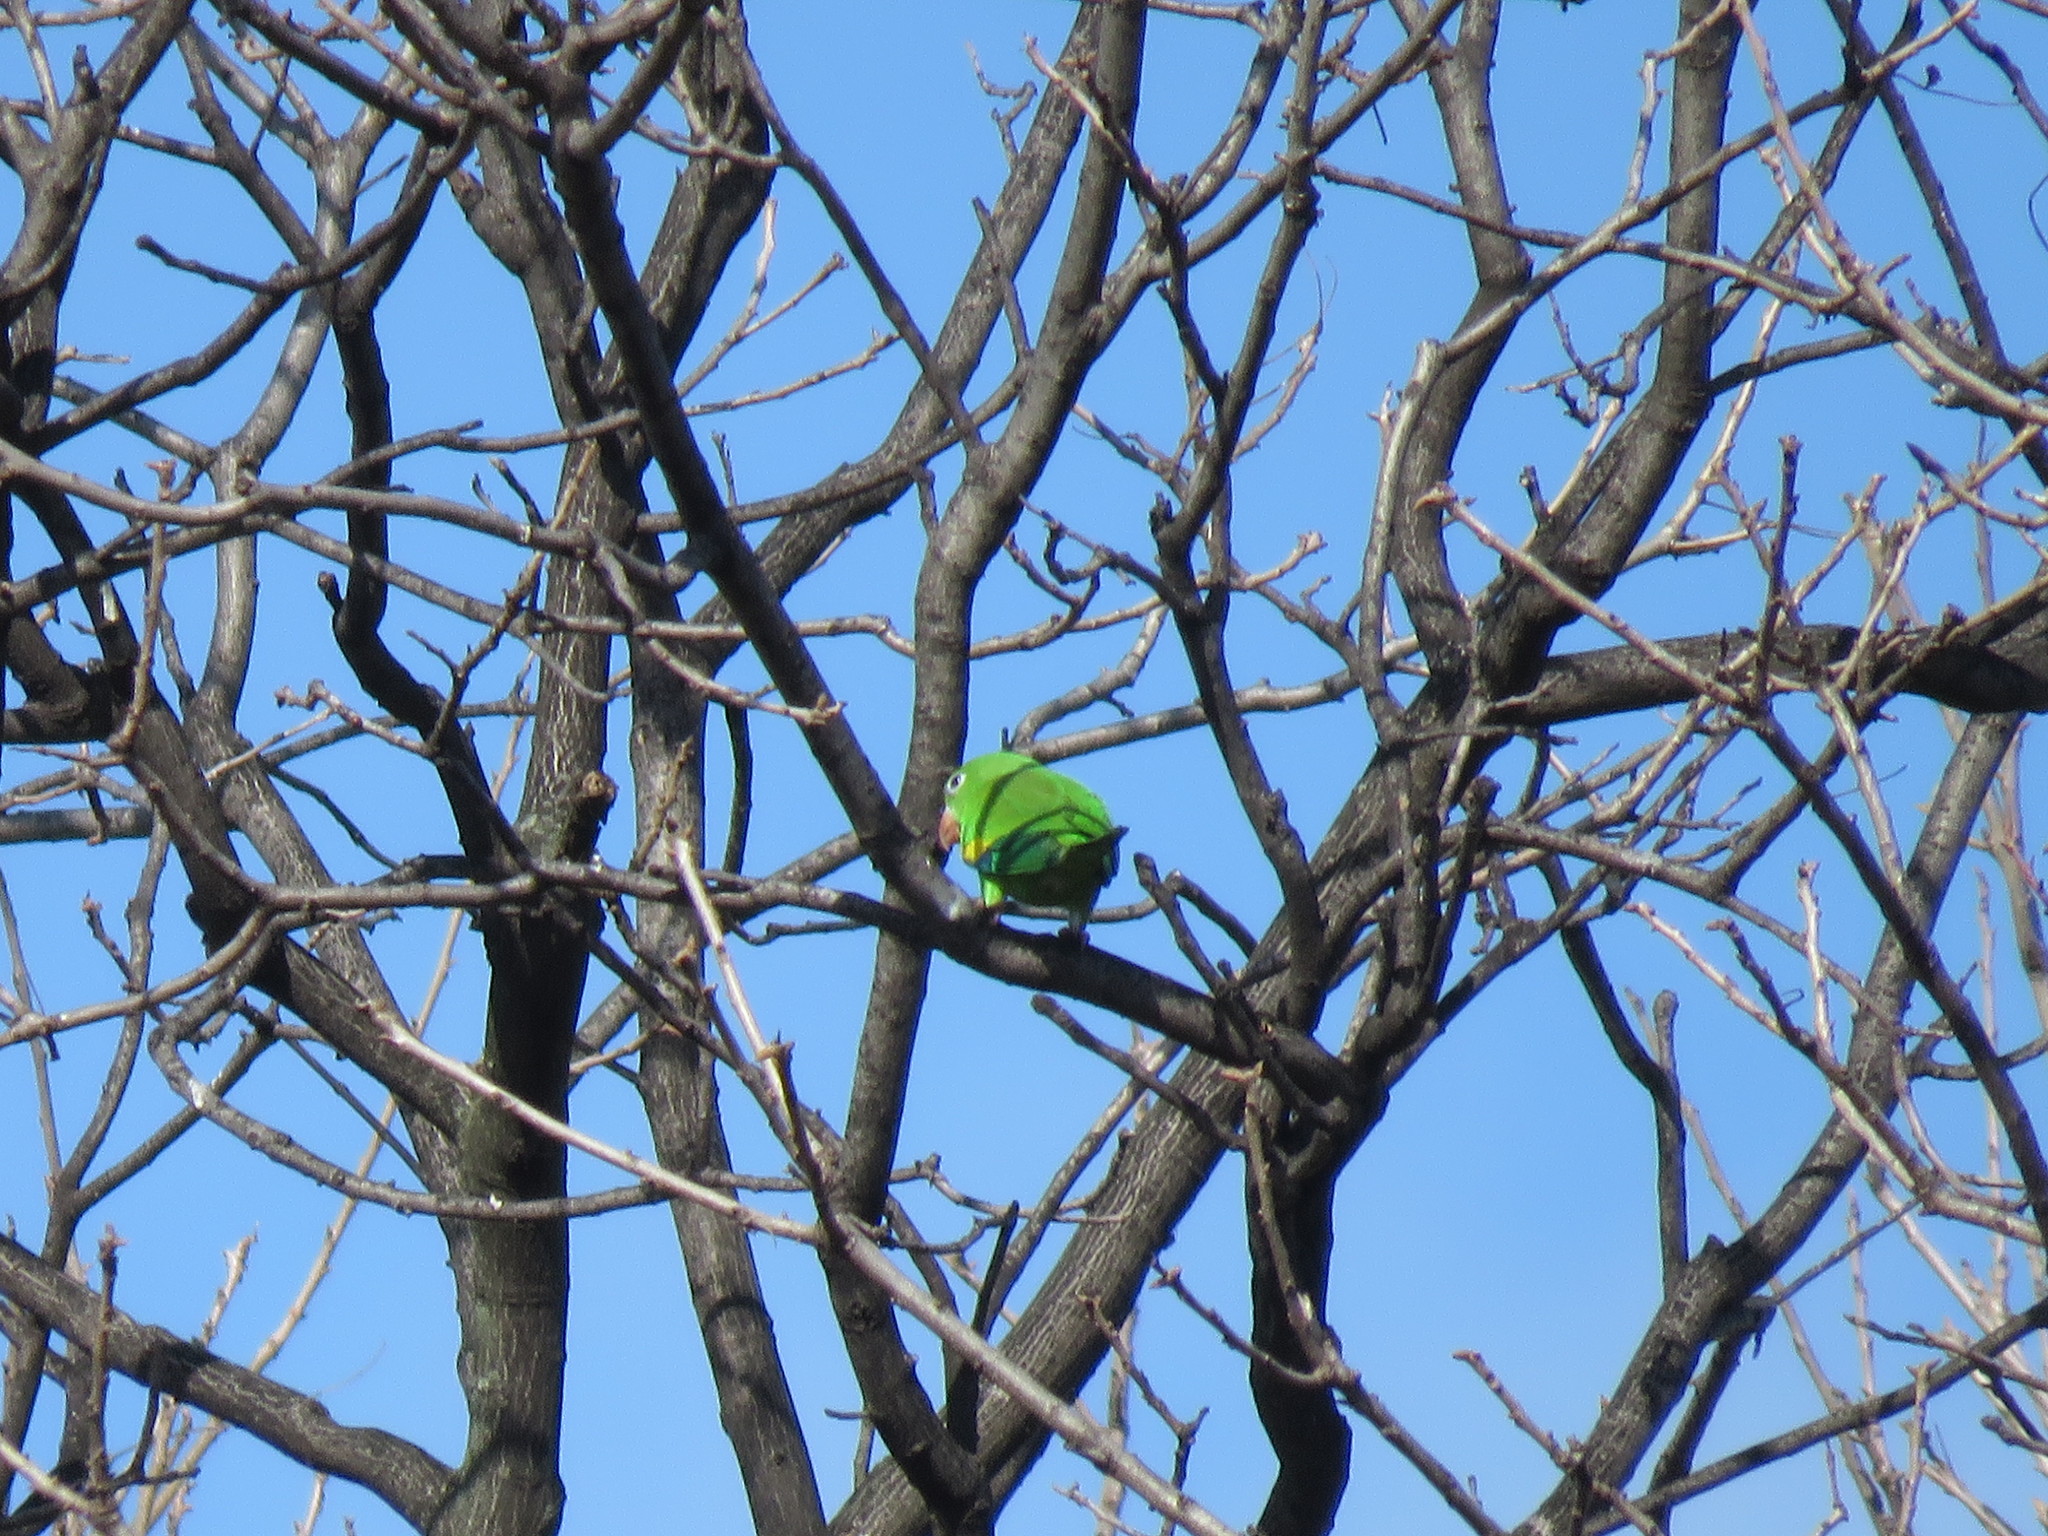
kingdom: Animalia
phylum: Chordata
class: Aves
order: Psittaciformes
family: Psittacidae
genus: Brotogeris
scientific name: Brotogeris chiriri
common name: Yellow-chevroned parakeet
